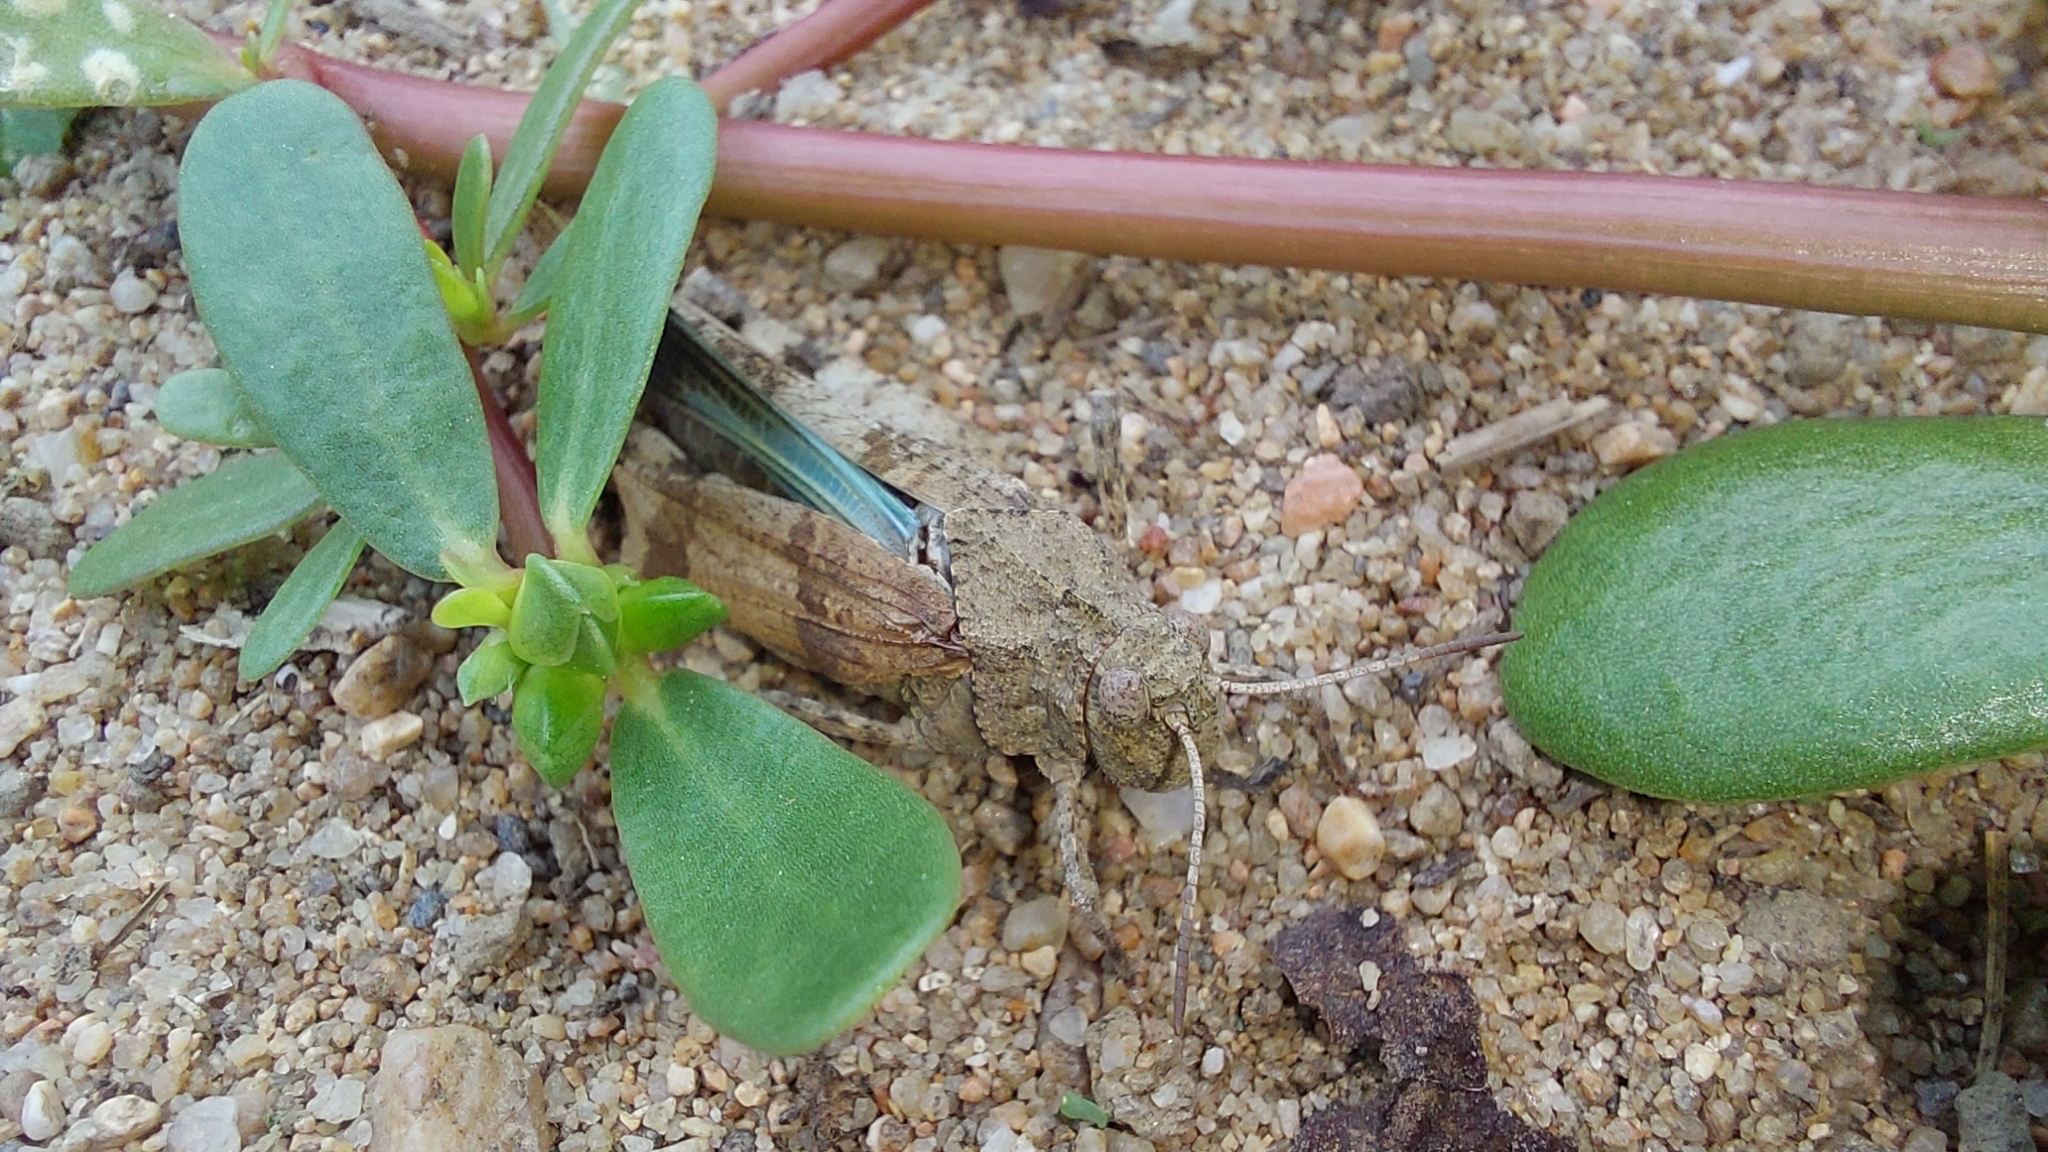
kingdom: Animalia
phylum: Arthropoda
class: Insecta
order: Orthoptera
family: Acrididae
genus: Oedipoda
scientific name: Oedipoda caerulescens
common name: Blue-winged grasshopper
